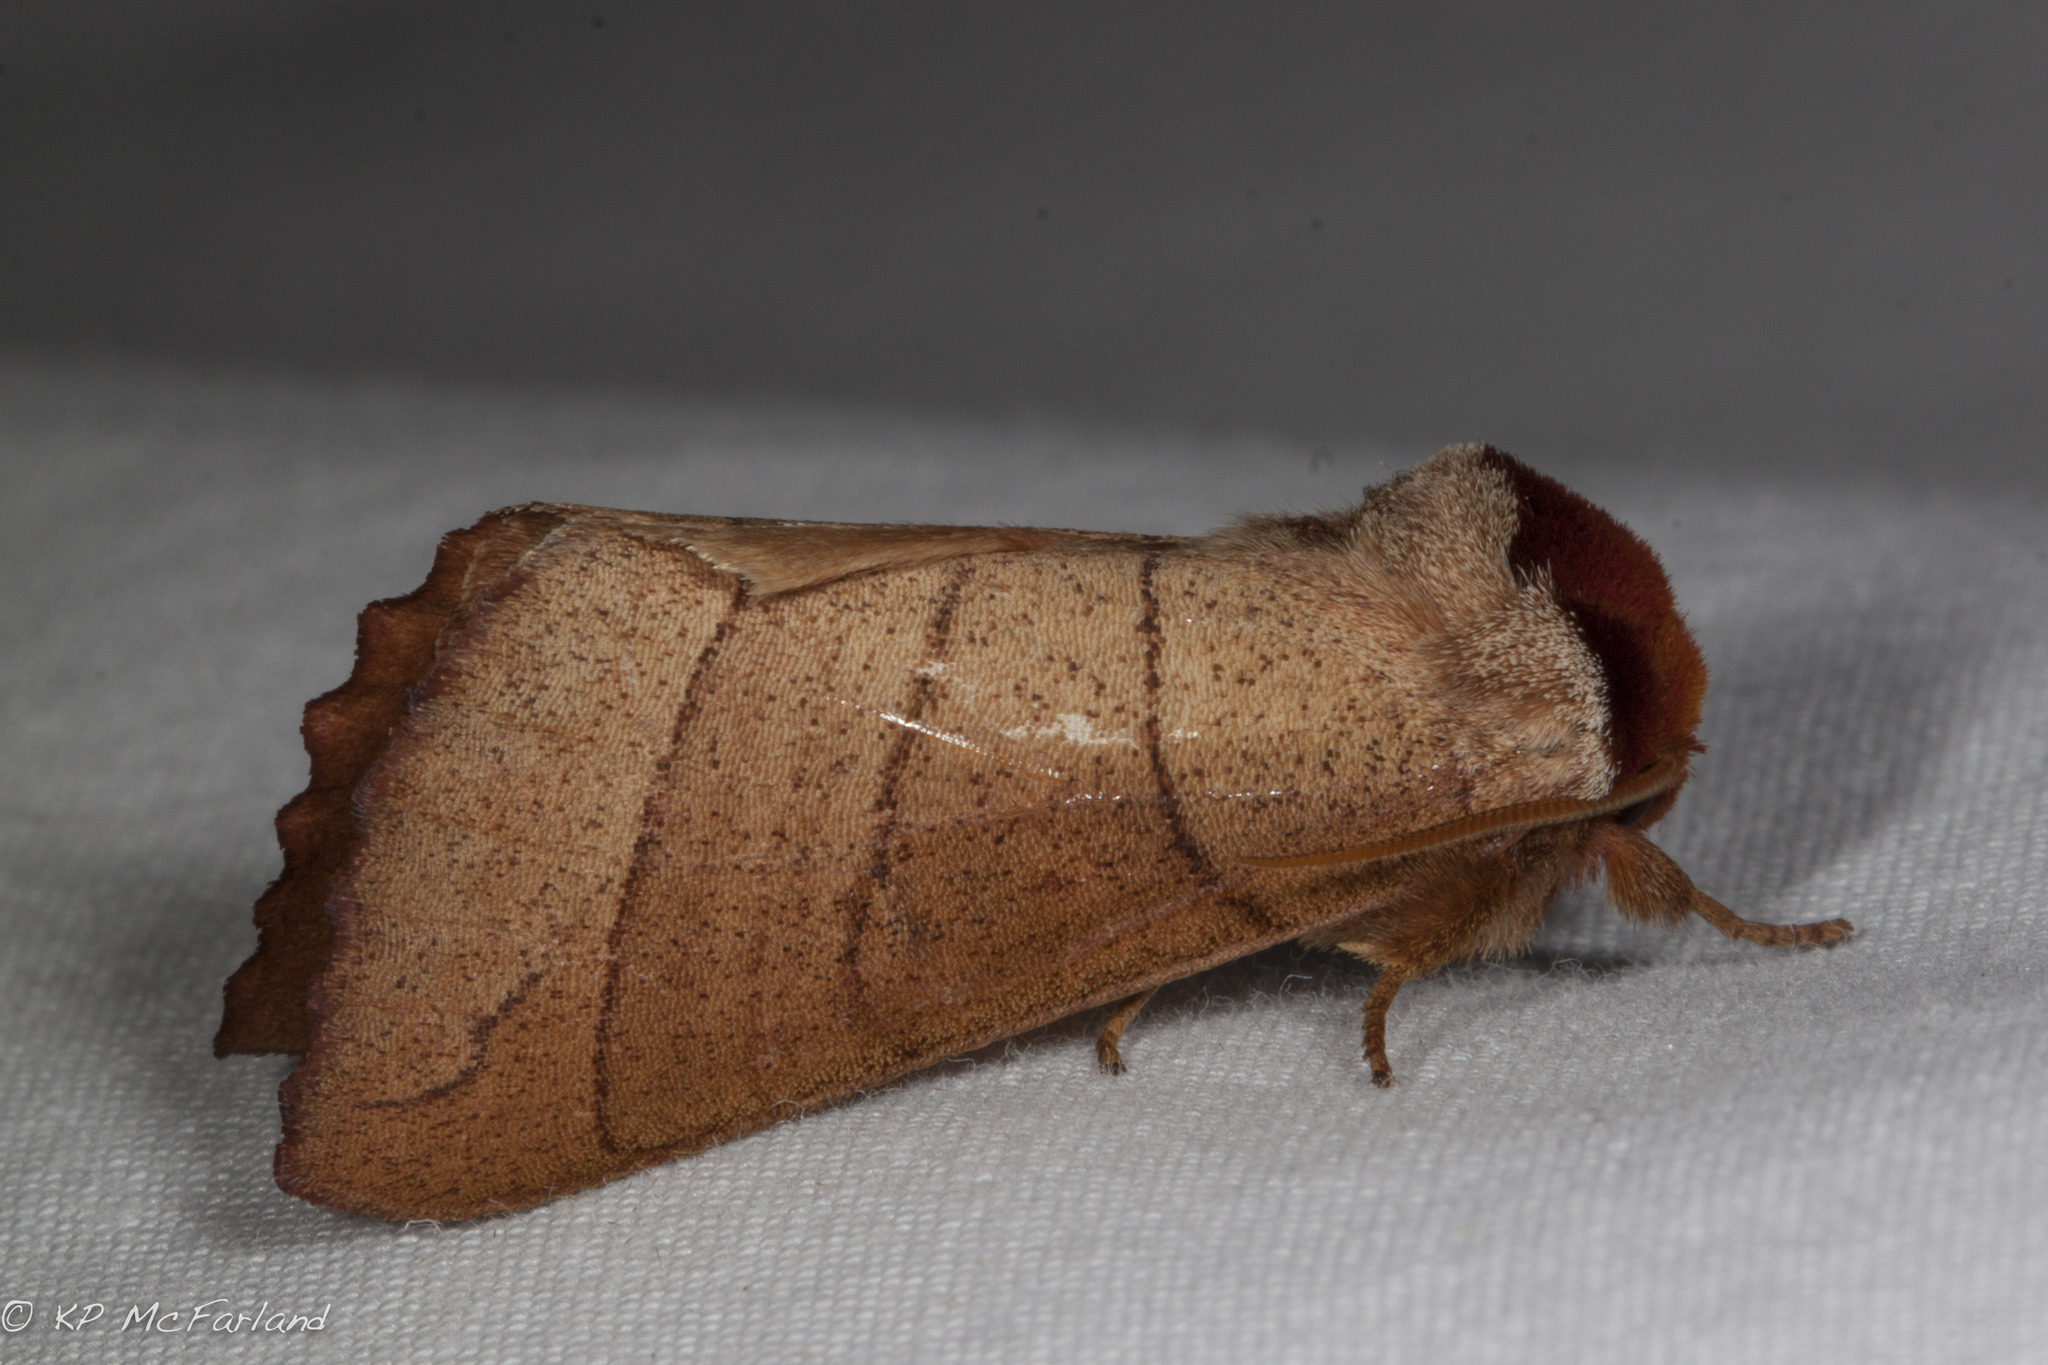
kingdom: Animalia
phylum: Arthropoda
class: Insecta
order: Lepidoptera
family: Notodontidae
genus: Datana
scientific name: Datana ministra
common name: Yellow-necked caterpillar moth
